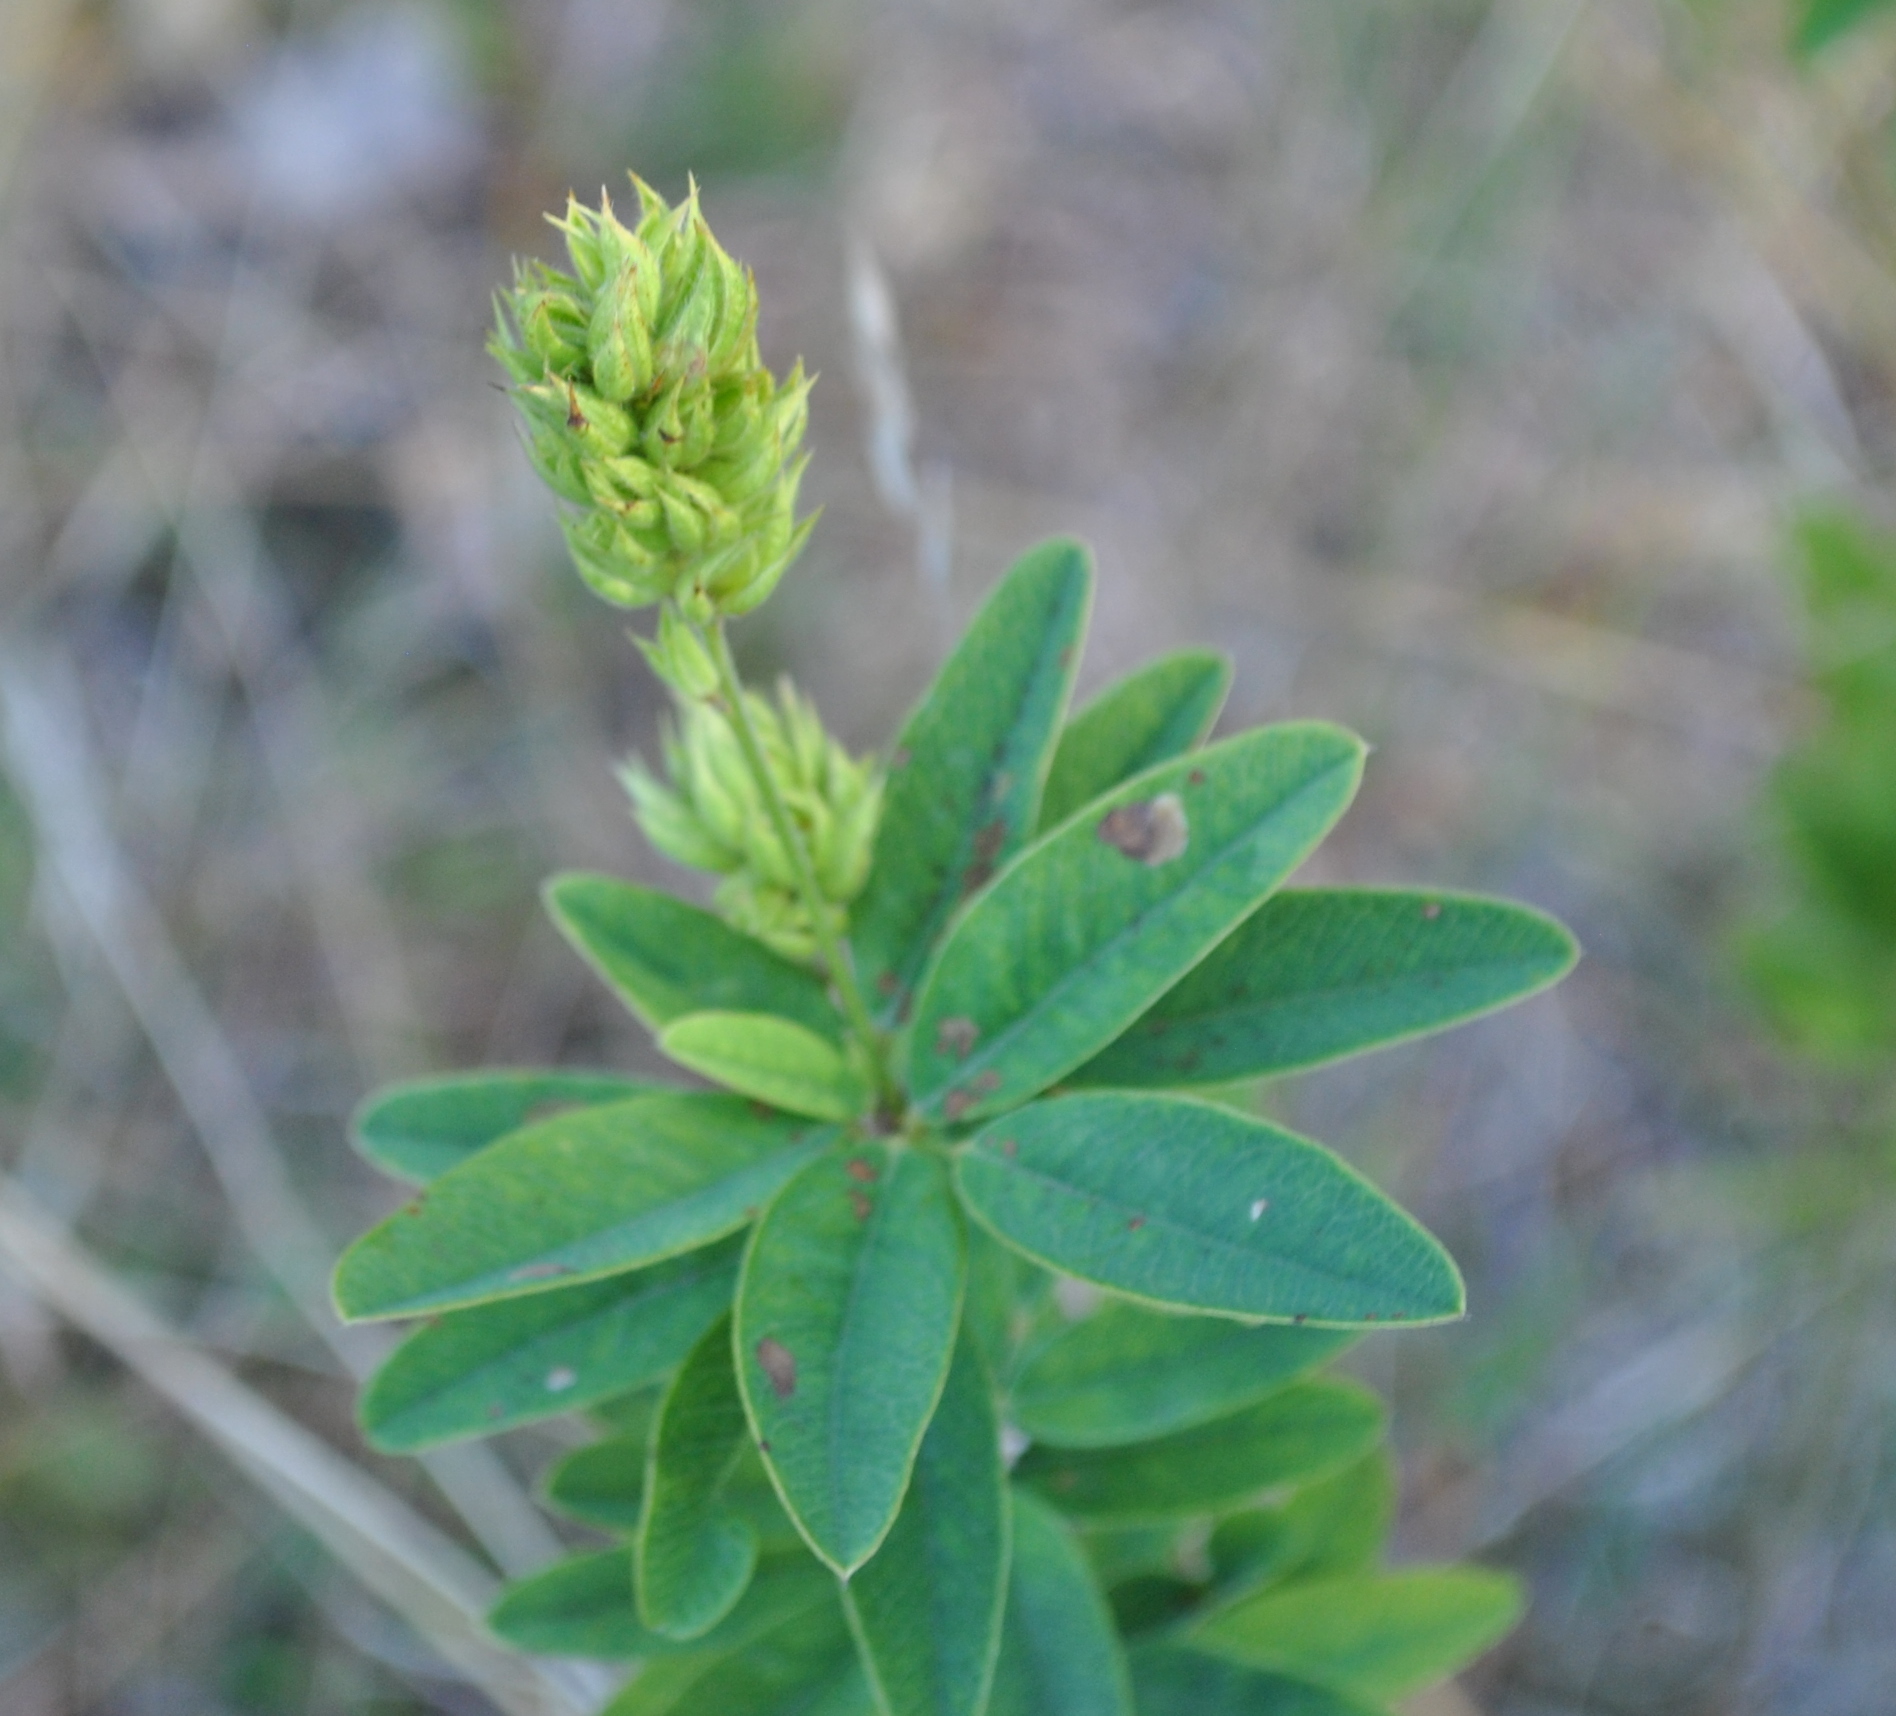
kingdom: Plantae
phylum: Tracheophyta
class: Magnoliopsida
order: Fabales
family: Fabaceae
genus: Lespedeza
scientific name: Lespedeza capitata
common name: Dusty clover
